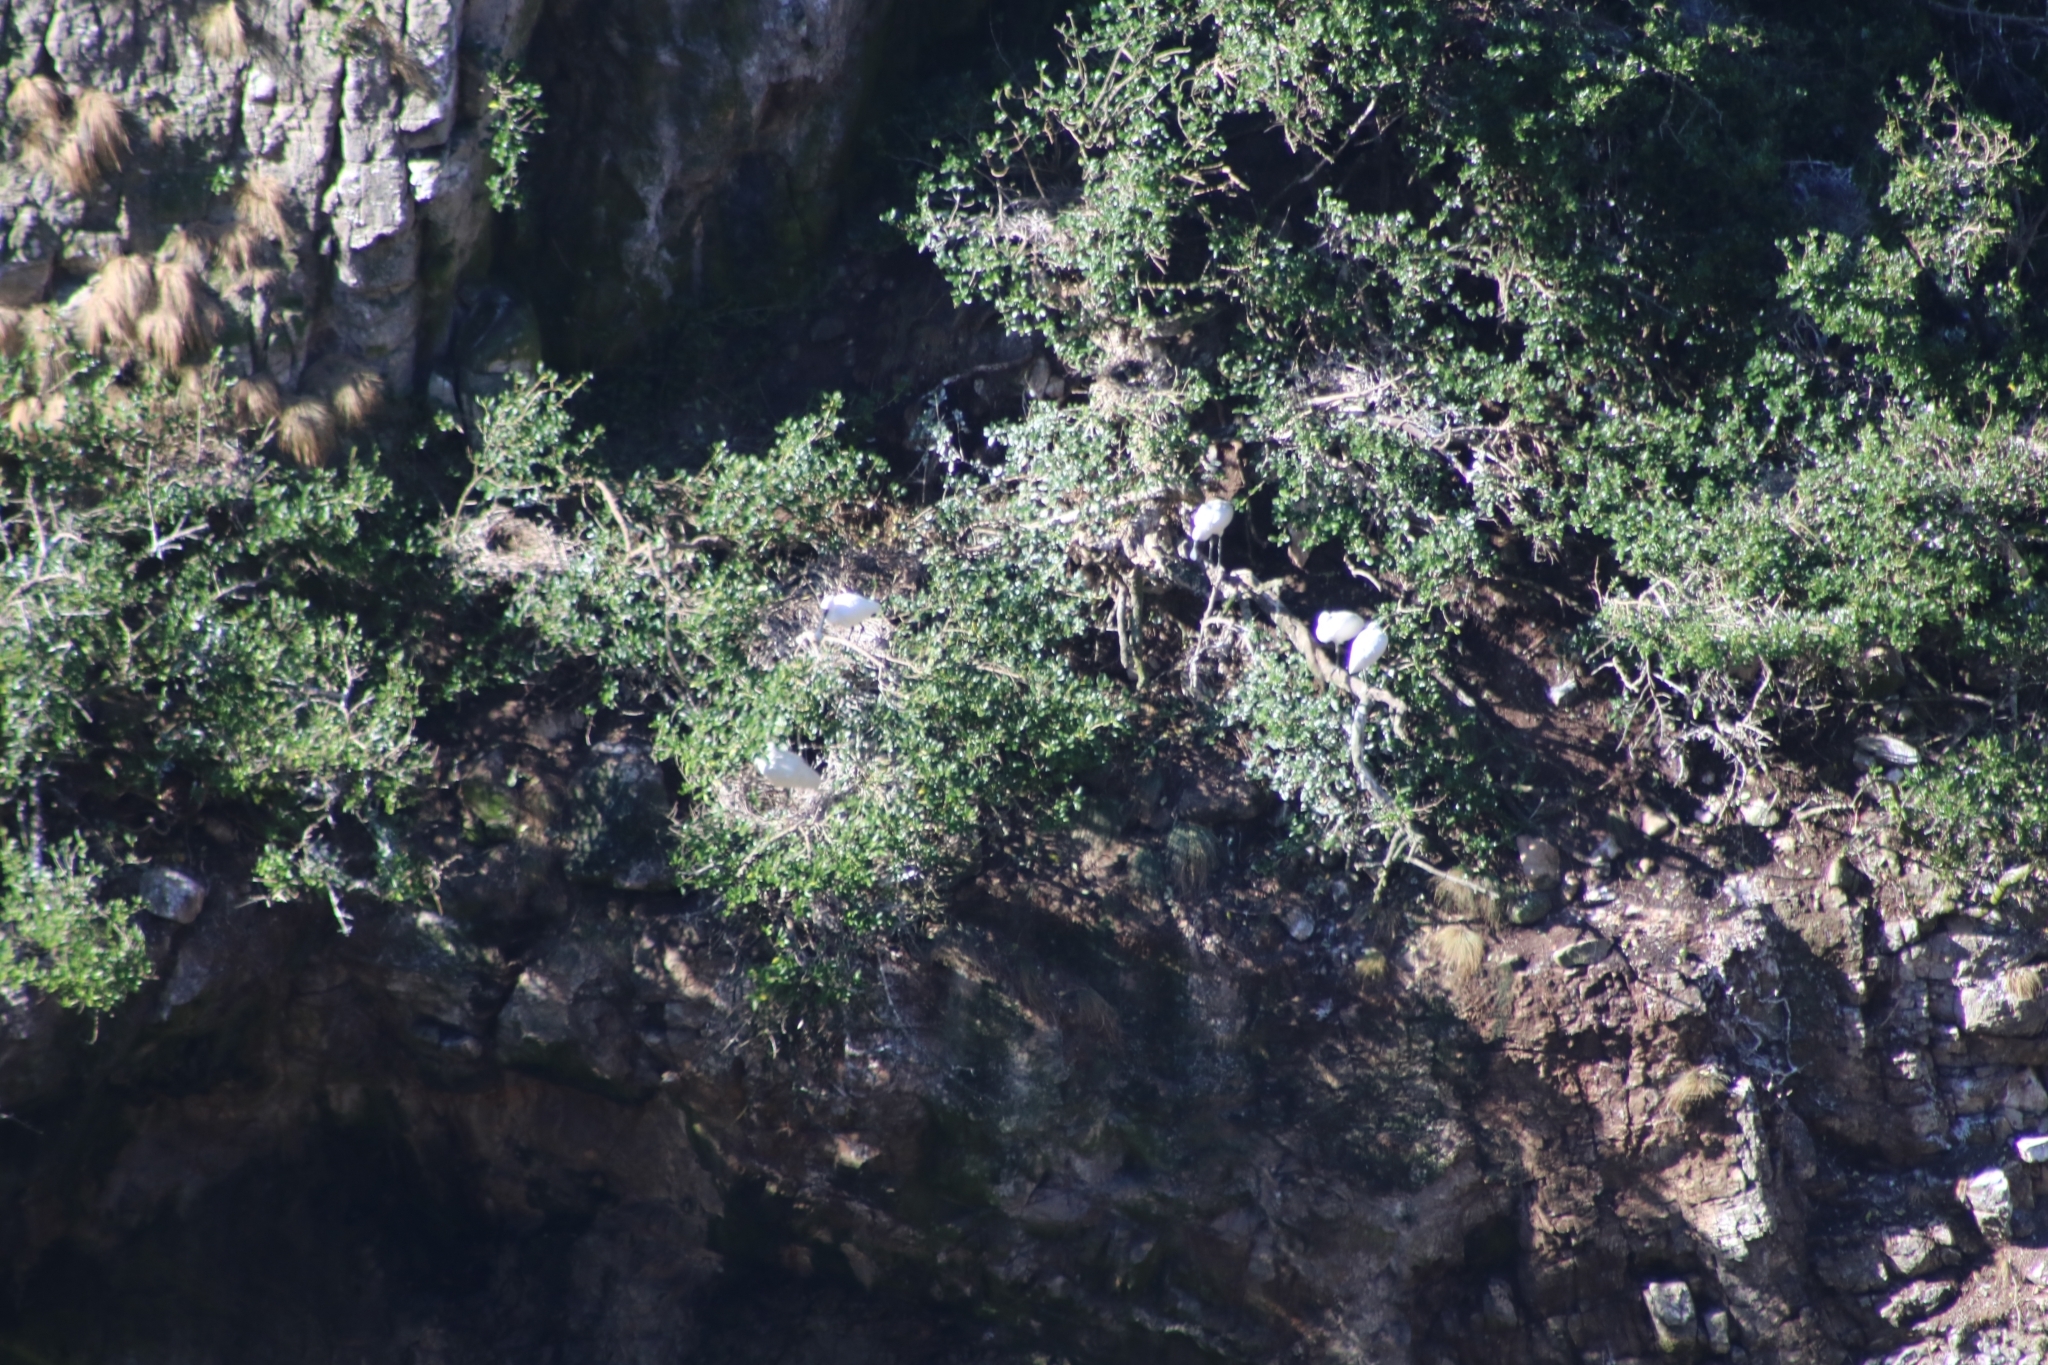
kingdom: Animalia
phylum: Chordata
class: Aves
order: Pelecaniformes
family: Threskiornithidae
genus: Platalea
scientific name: Platalea regia
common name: Royal spoonbill
